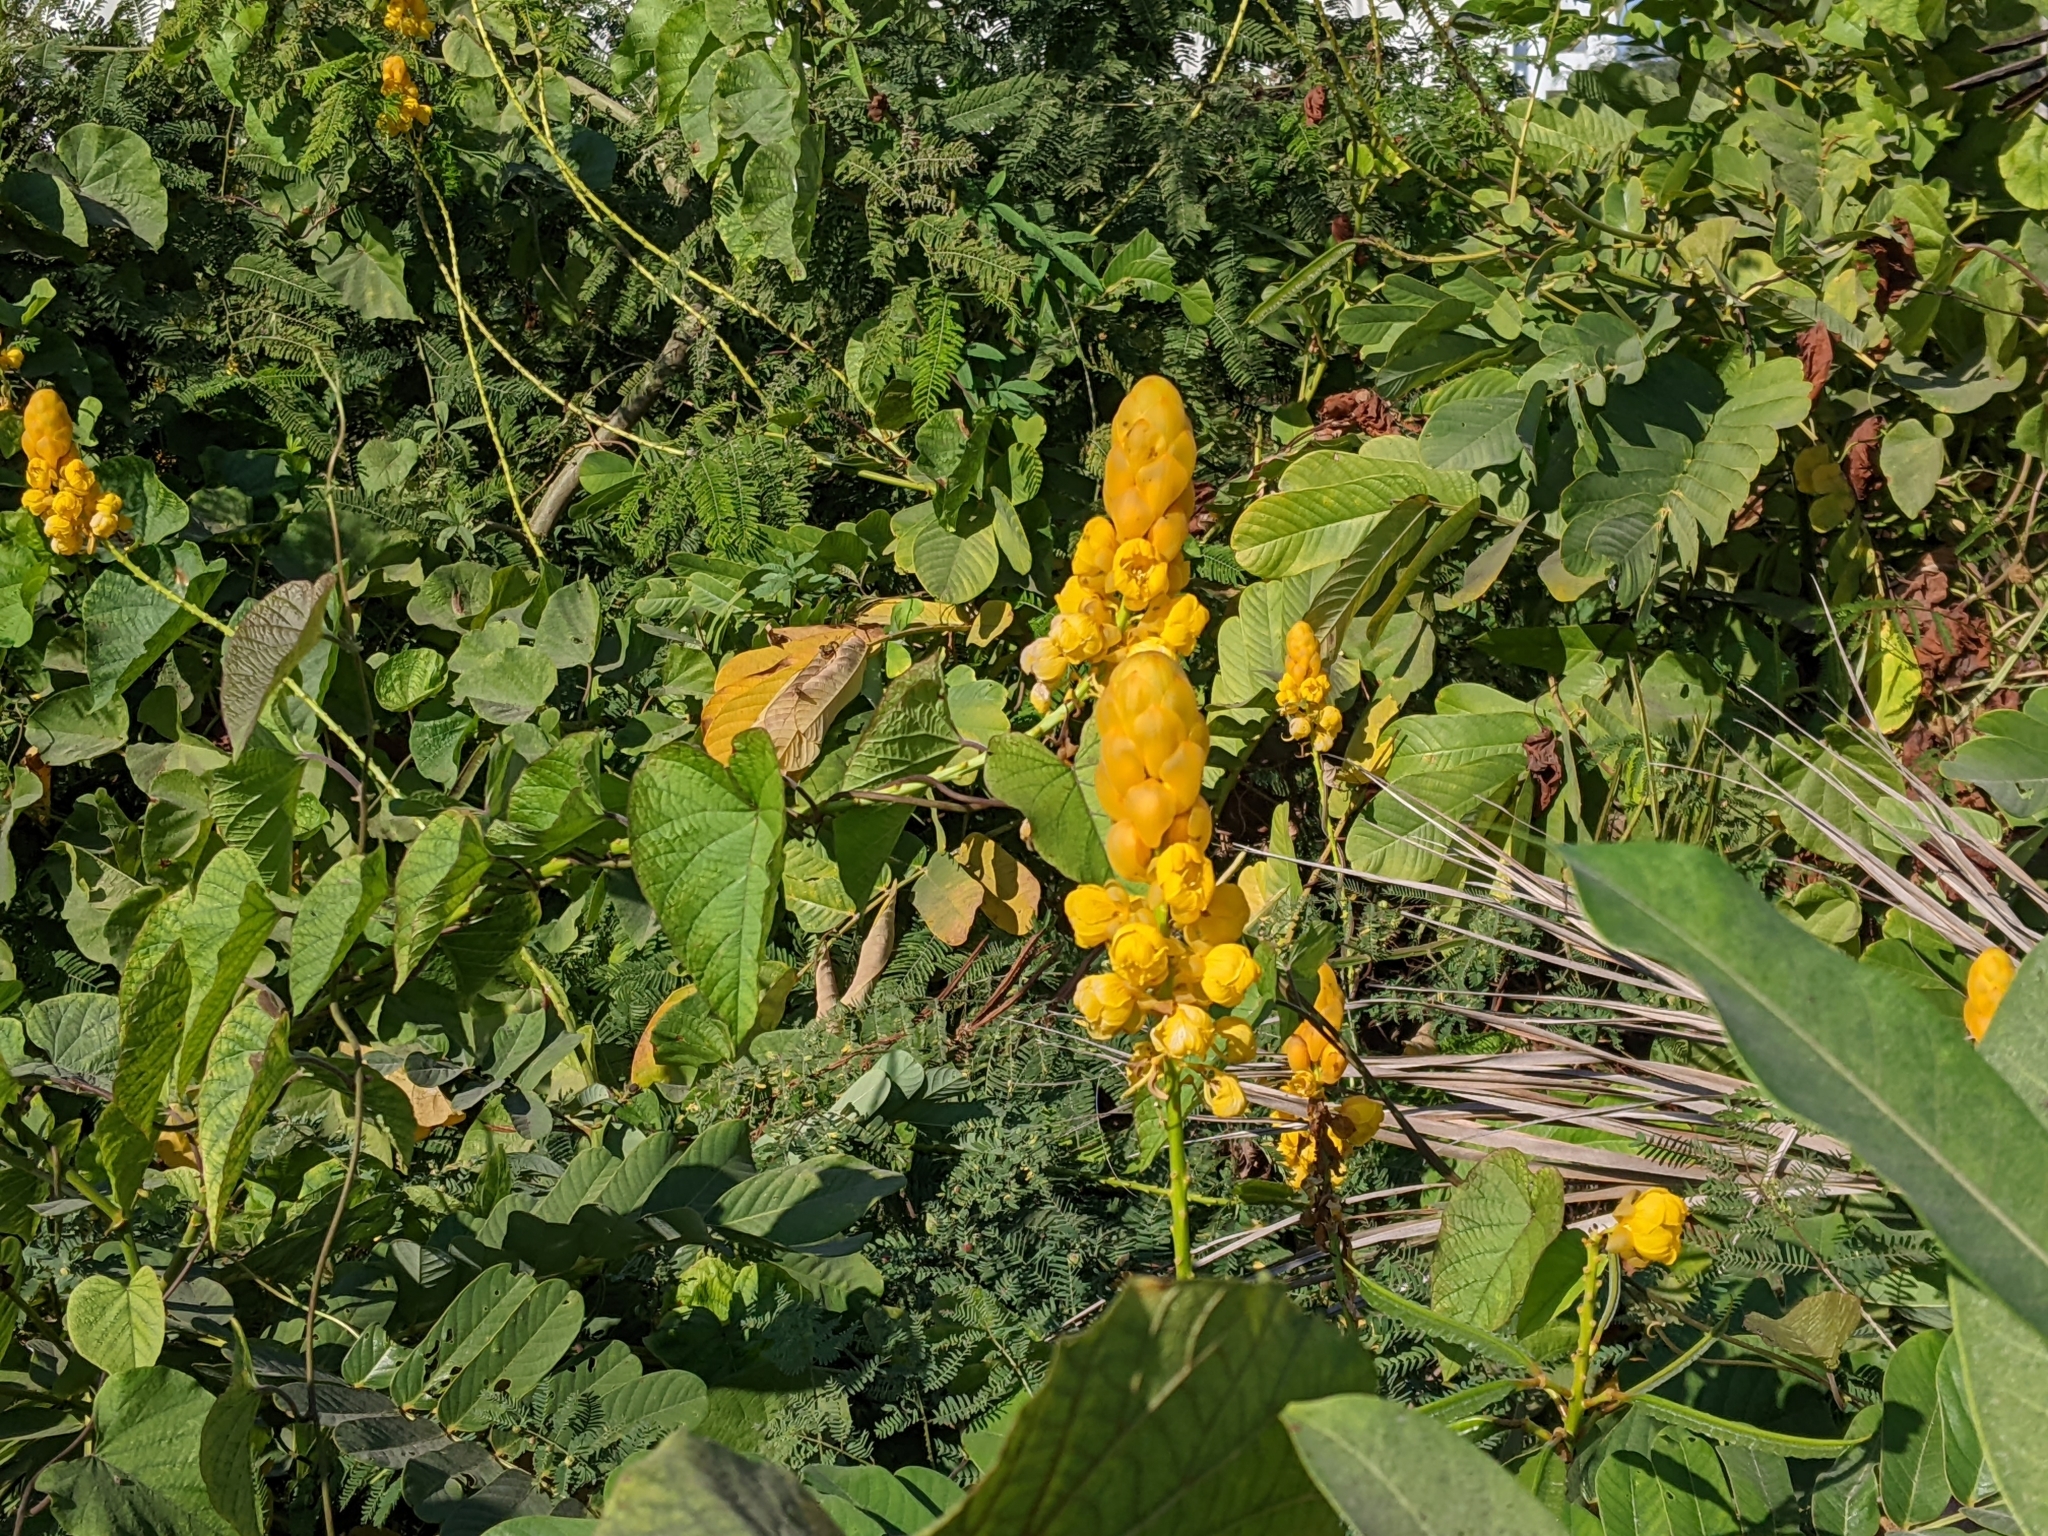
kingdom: Plantae
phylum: Tracheophyta
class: Magnoliopsida
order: Fabales
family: Fabaceae
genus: Senna
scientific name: Senna alata
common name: Emperor's candlesticks
